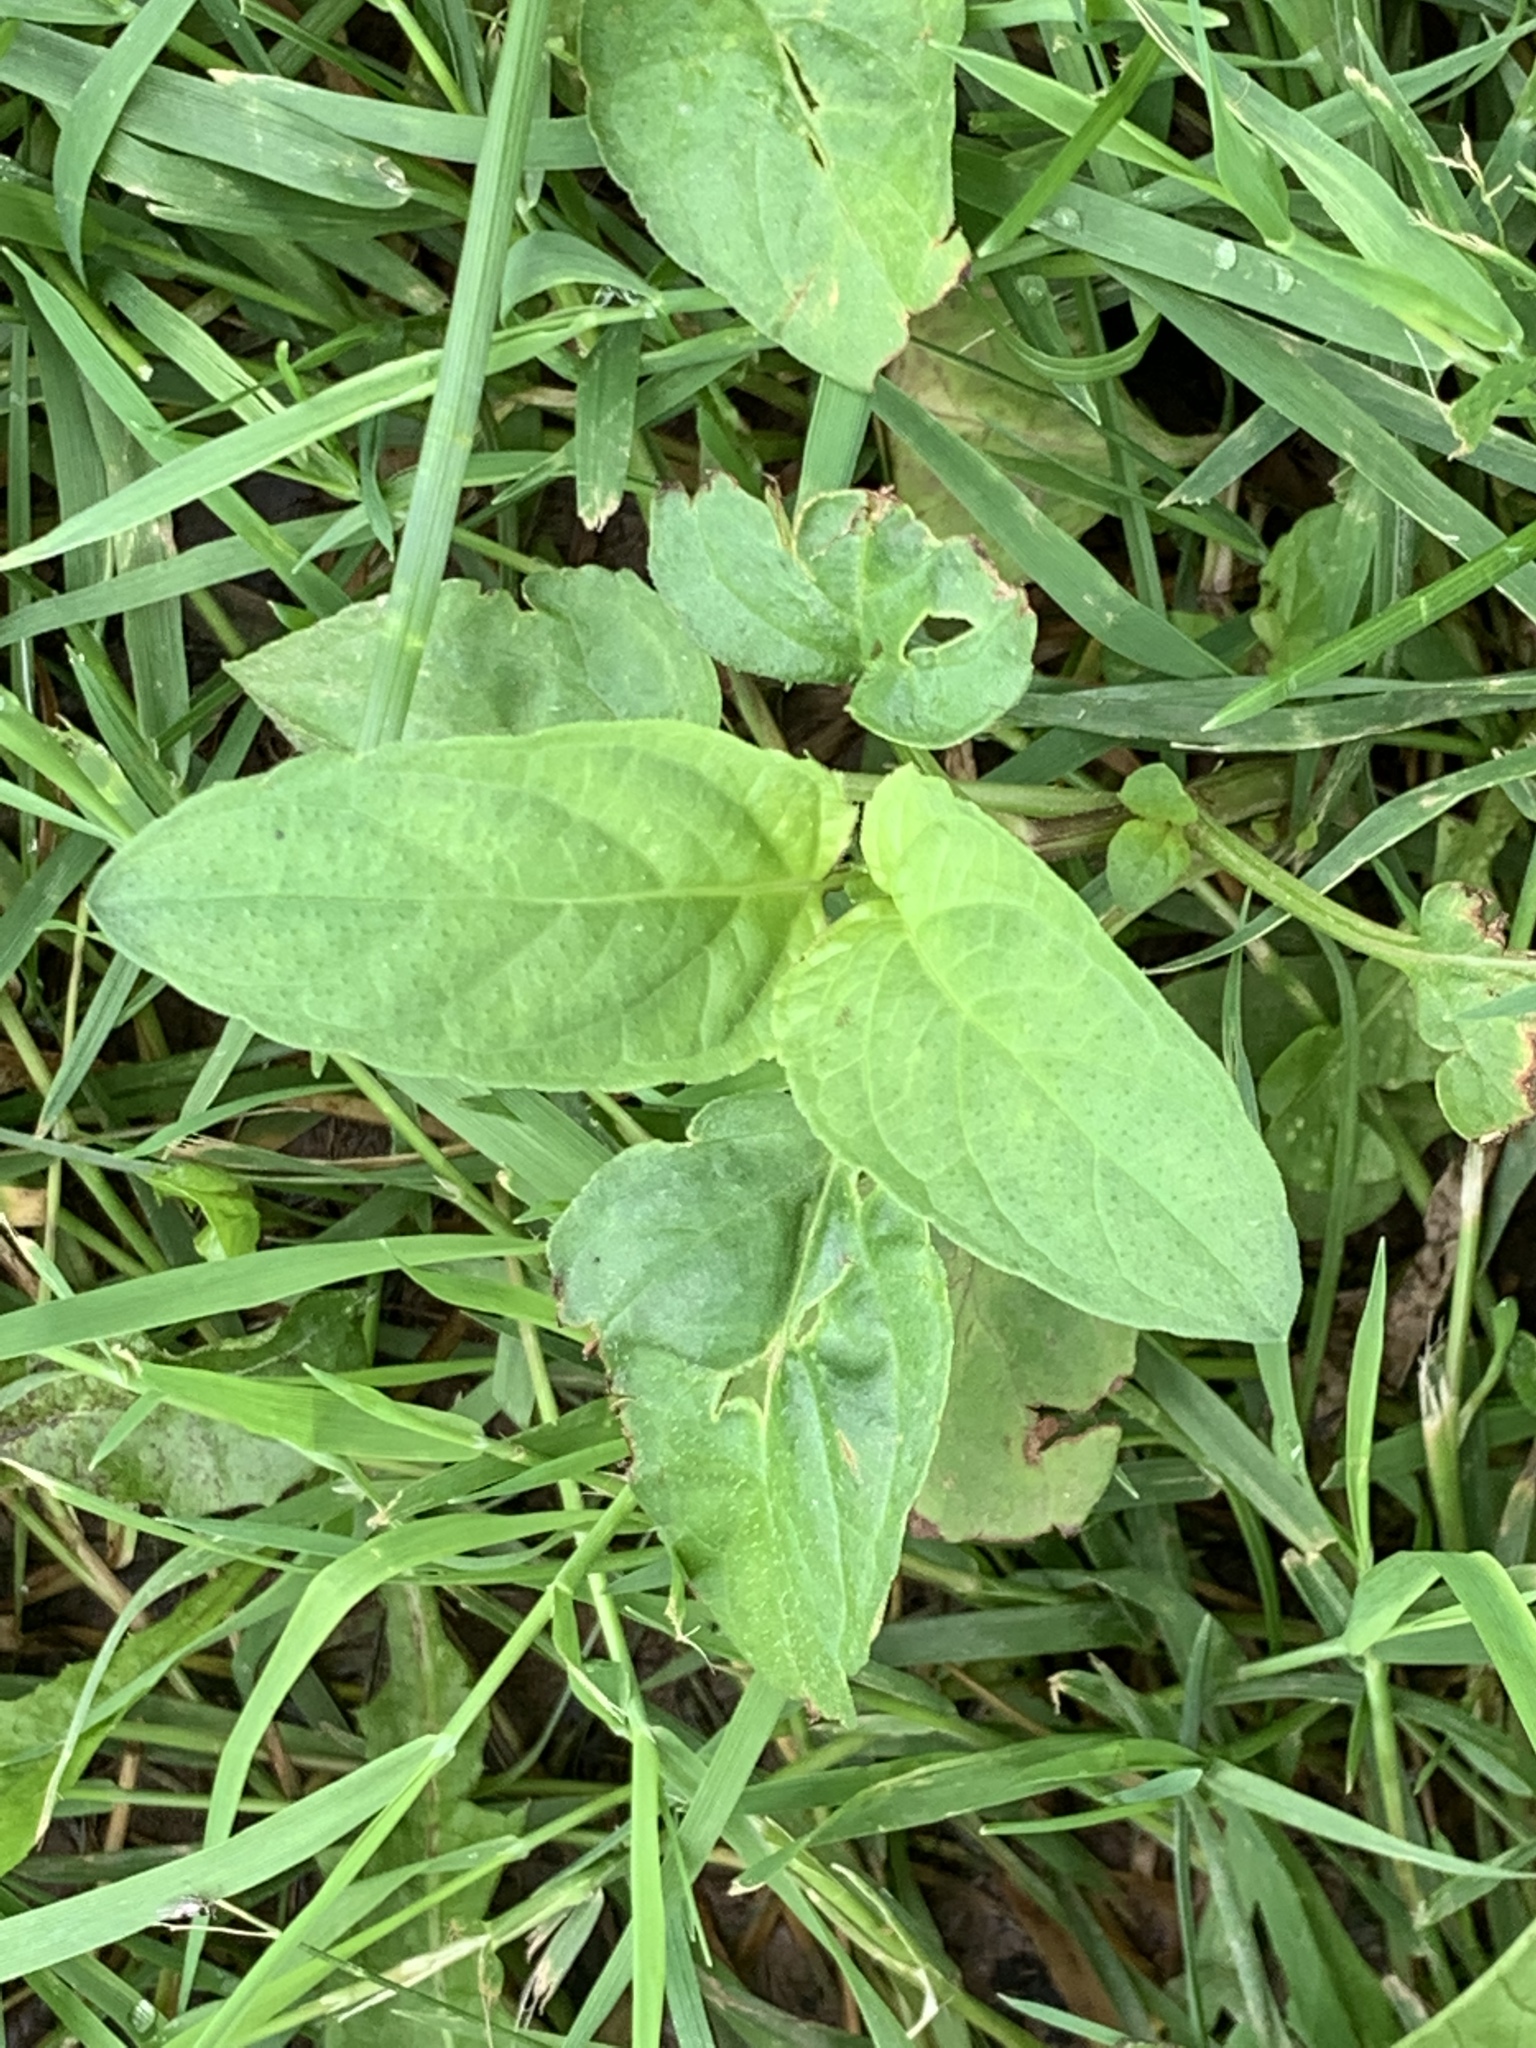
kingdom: Plantae
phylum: Tracheophyta
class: Magnoliopsida
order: Lamiales
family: Lamiaceae
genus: Prunella
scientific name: Prunella vulgaris
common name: Heal-all
